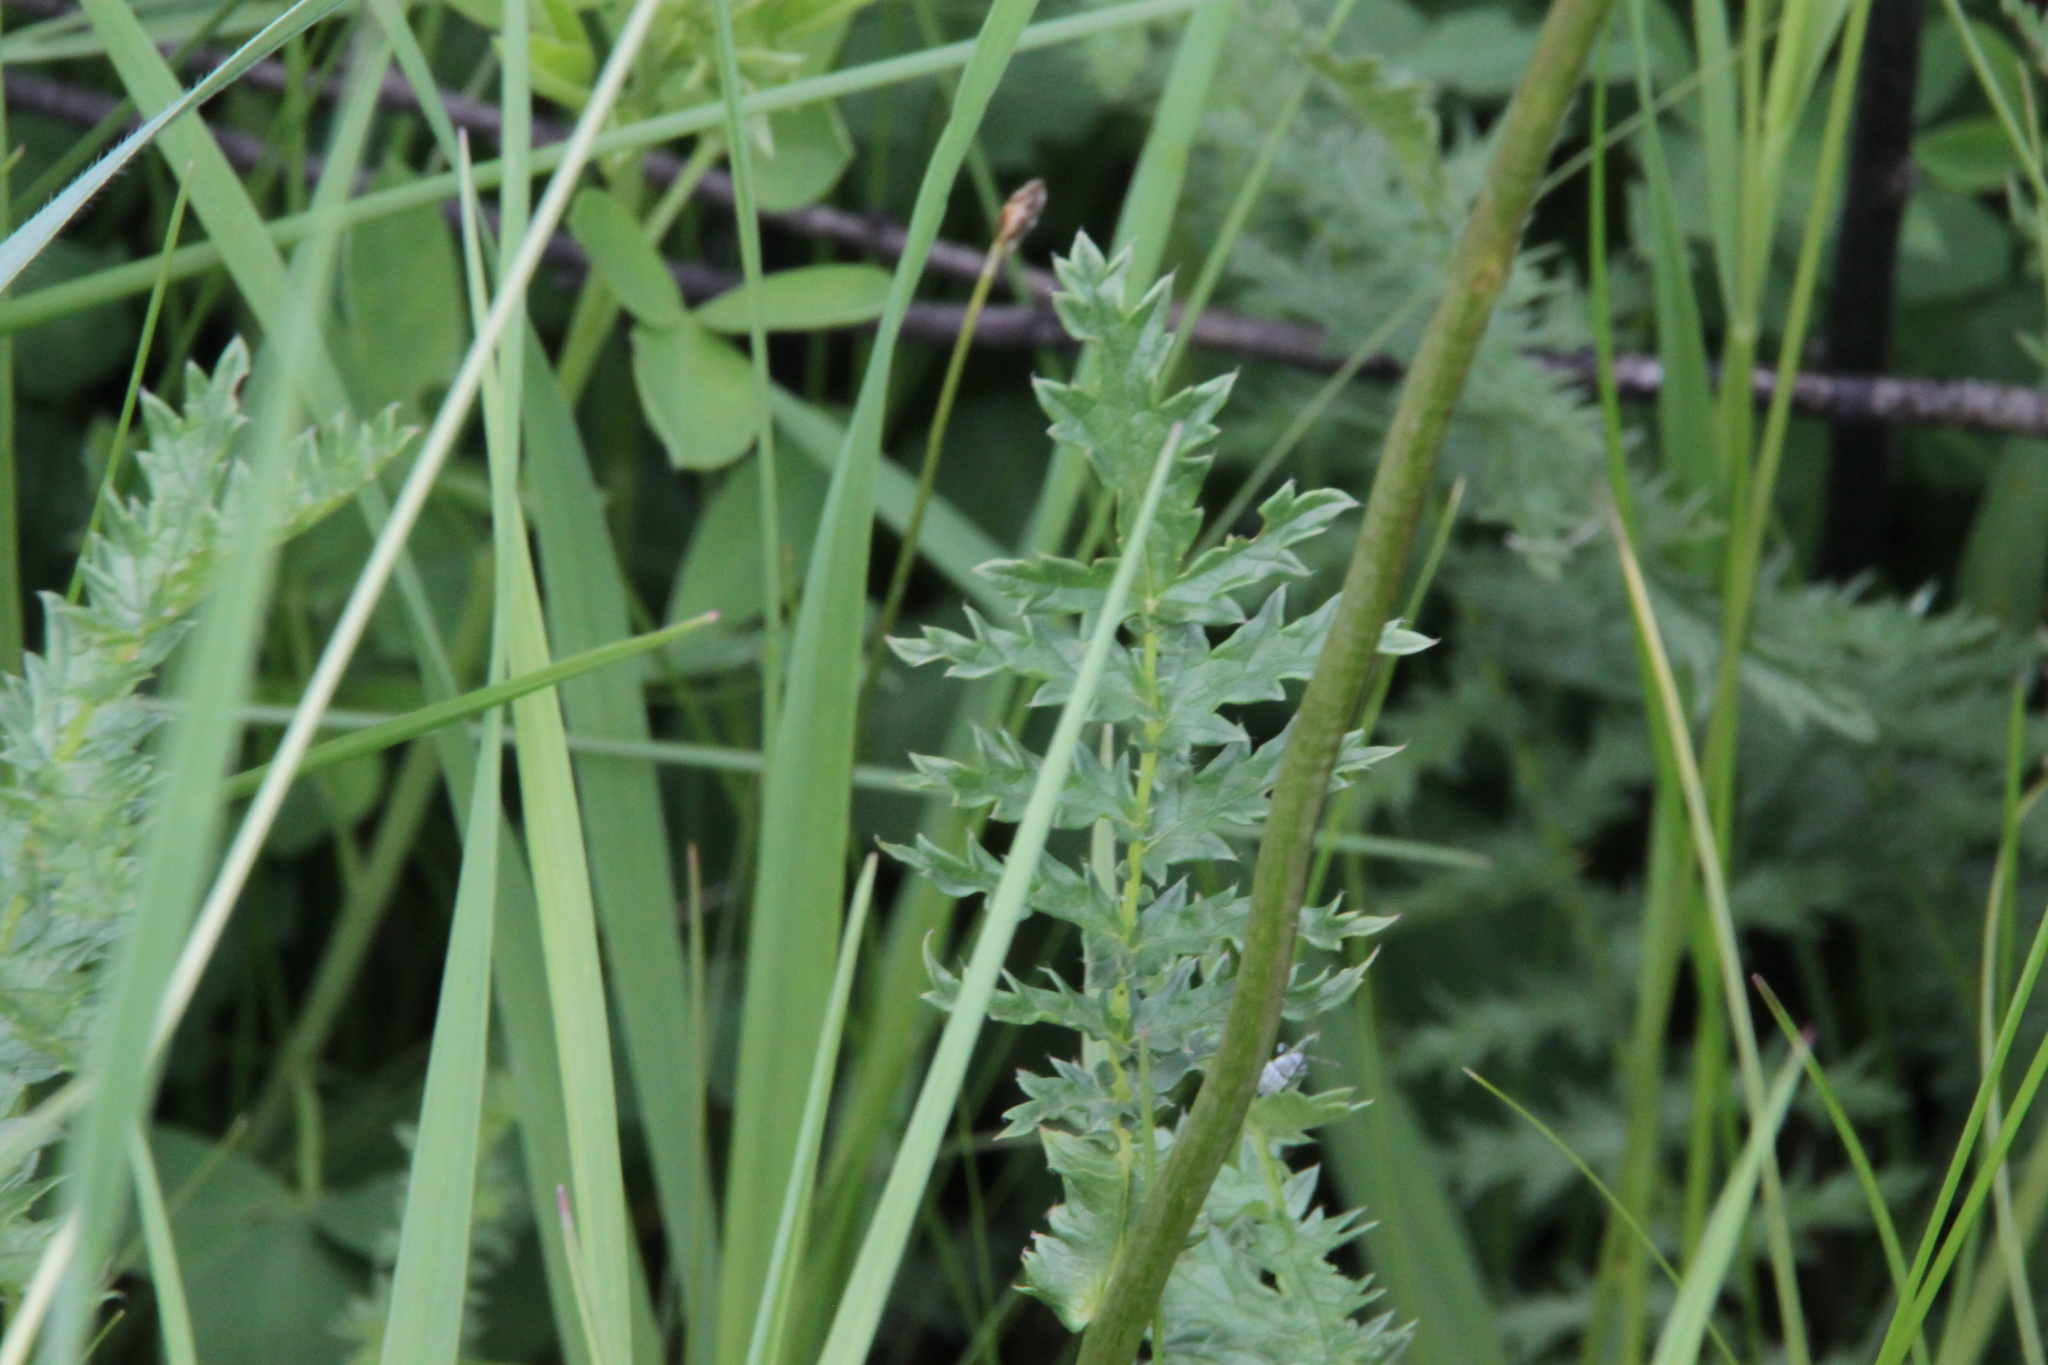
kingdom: Plantae
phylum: Tracheophyta
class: Magnoliopsida
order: Rosales
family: Rosaceae
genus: Filipendula
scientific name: Filipendula vulgaris
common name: Dropwort
